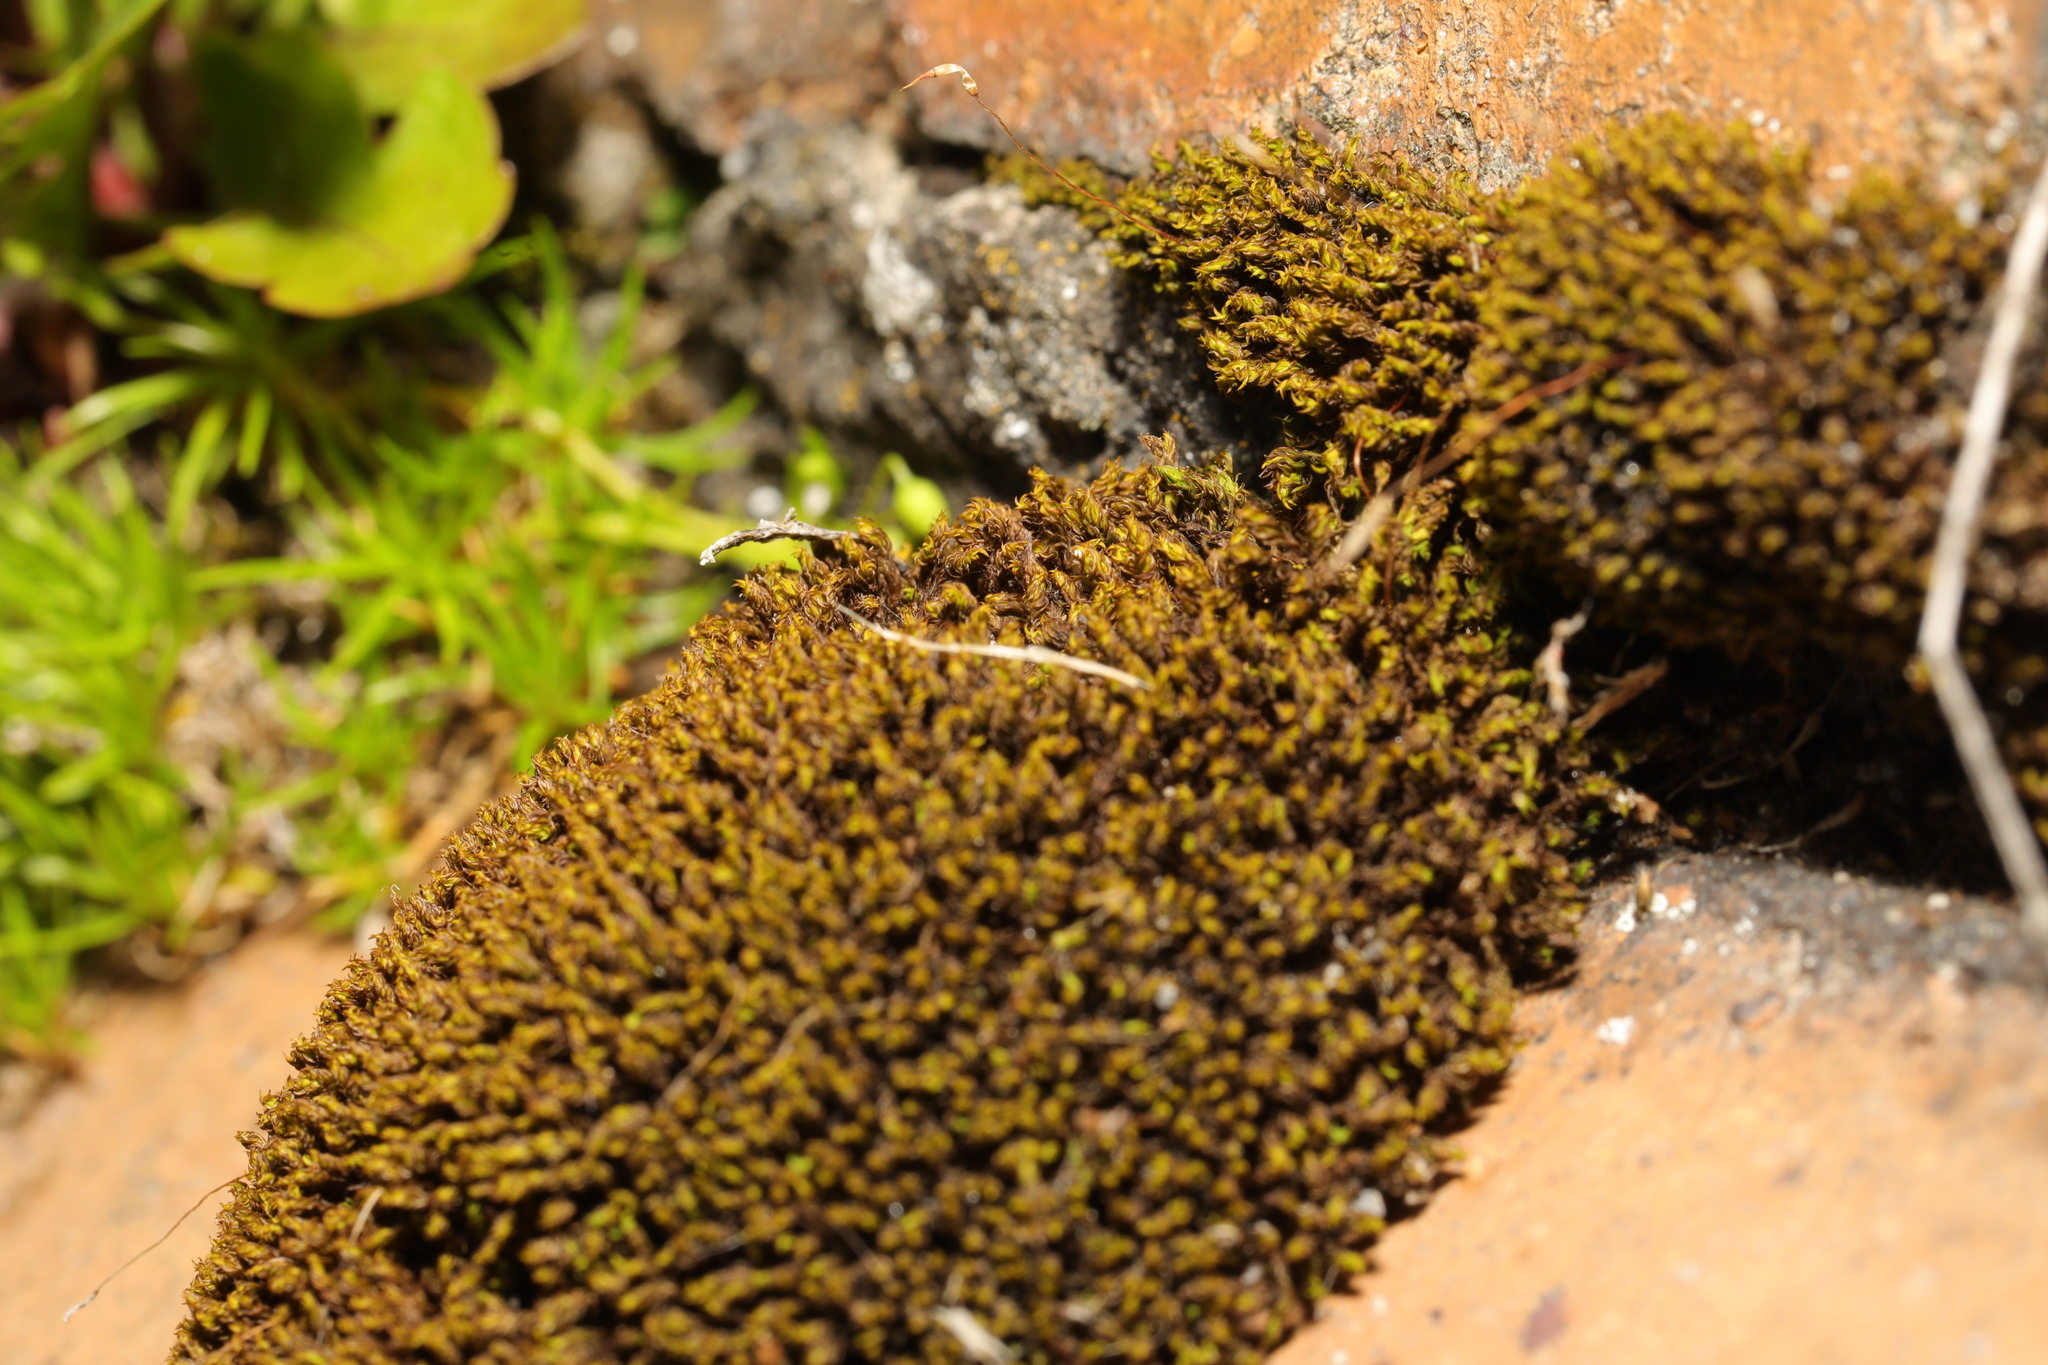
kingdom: Plantae
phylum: Bryophyta
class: Bryopsida
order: Pottiales
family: Pottiaceae
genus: Syntrichia
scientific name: Syntrichia ruralis
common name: Sidewalk screw moss
